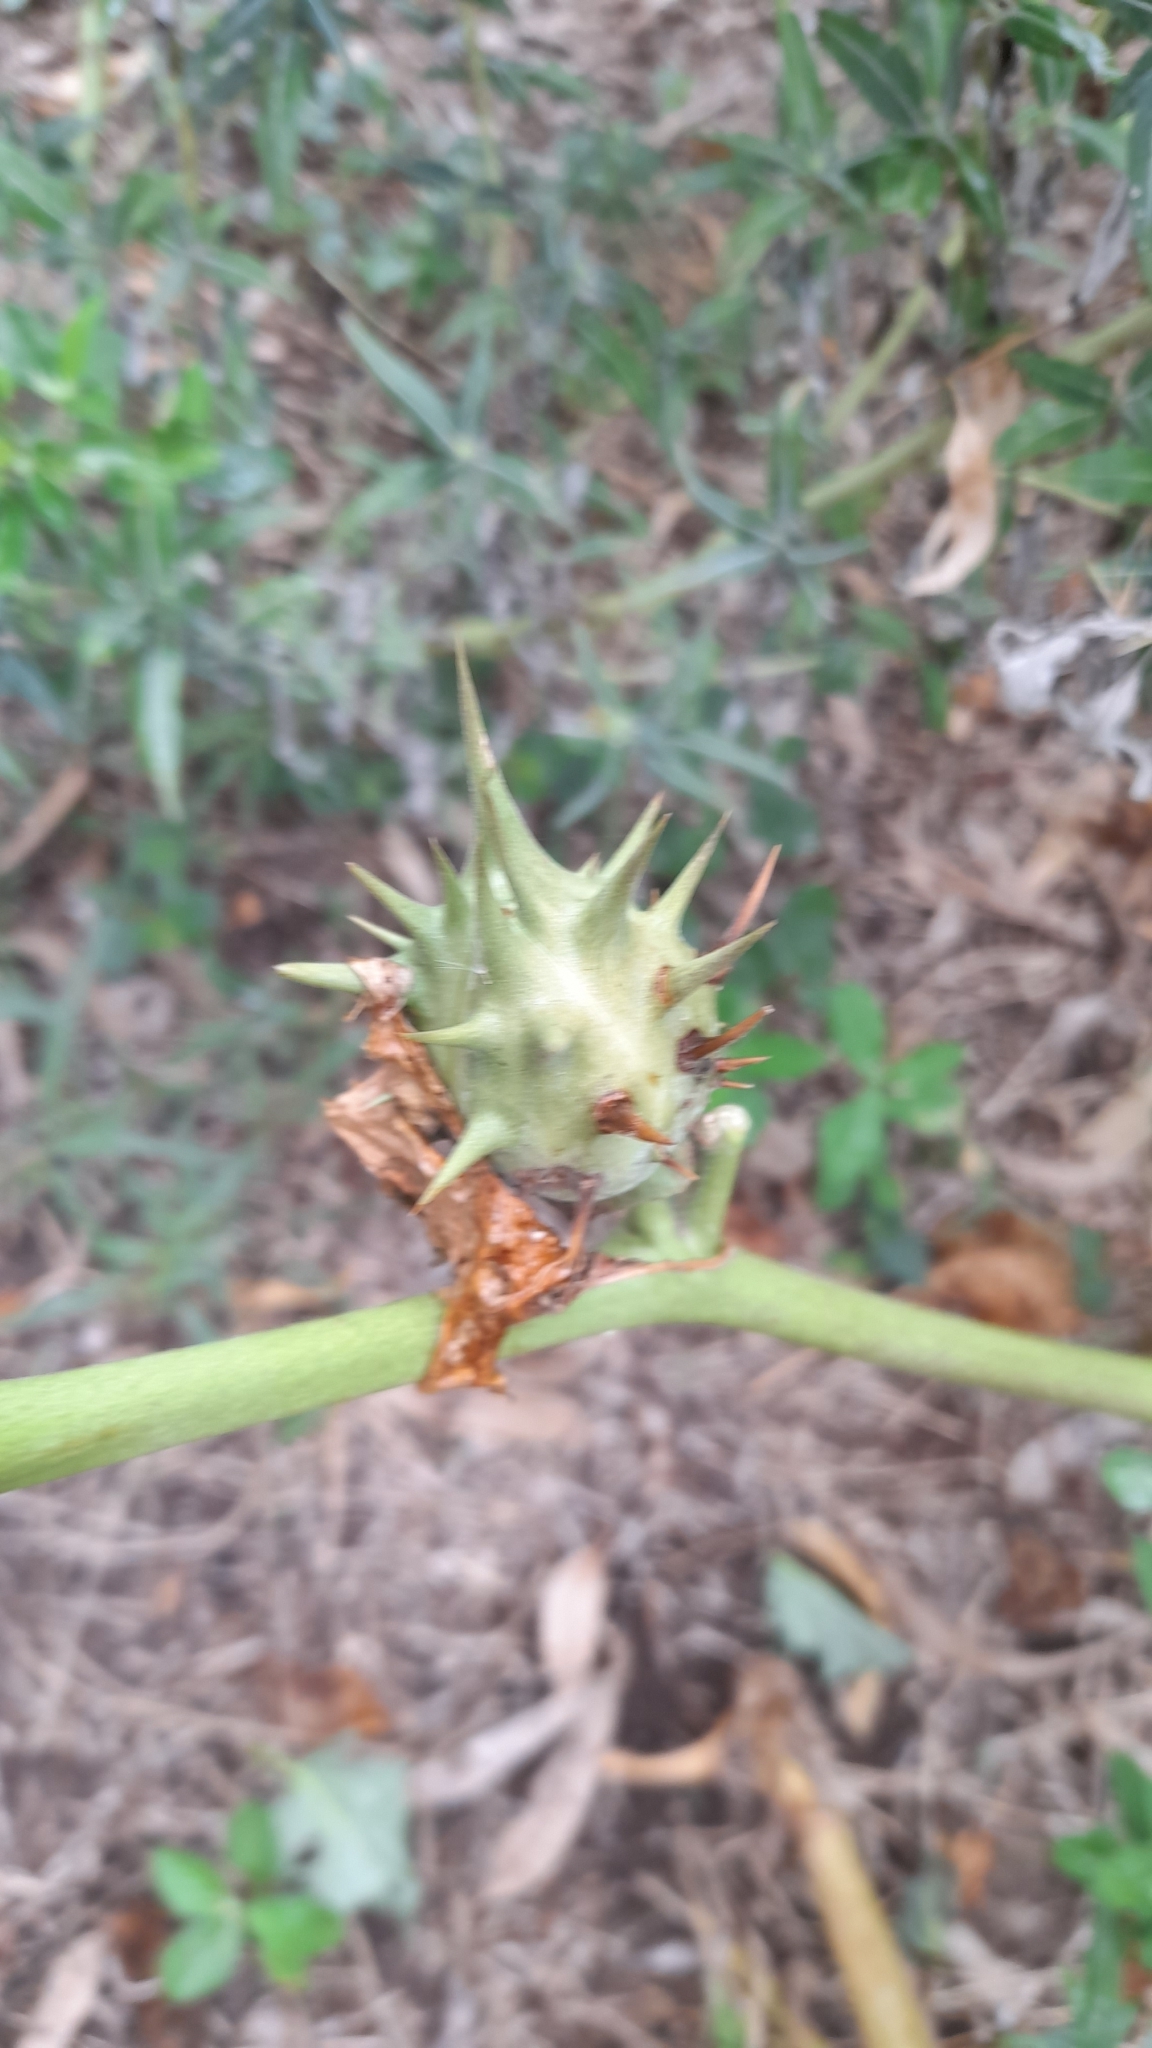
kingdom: Plantae
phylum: Tracheophyta
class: Magnoliopsida
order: Solanales
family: Solanaceae
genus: Datura
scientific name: Datura ferox
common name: Angel's-trumpets
